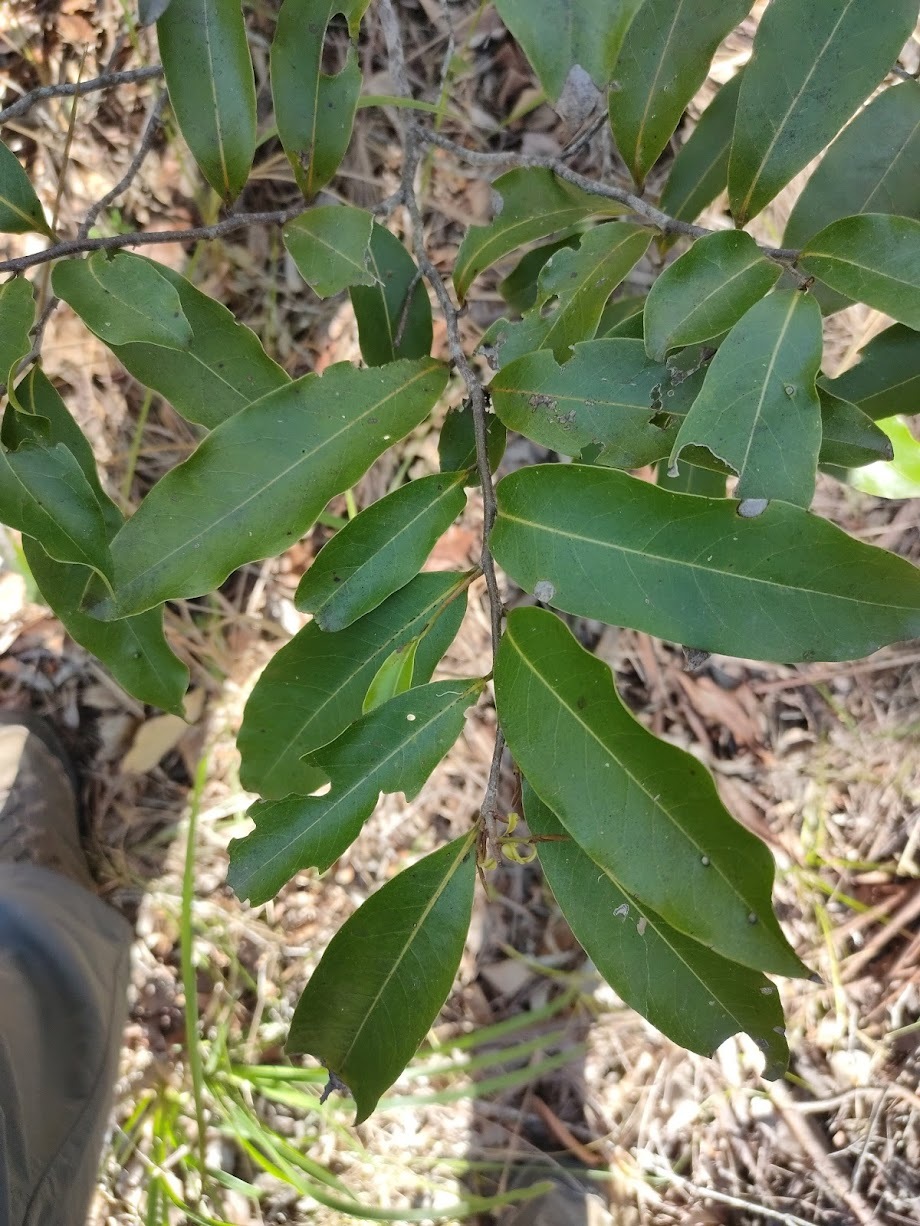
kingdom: Plantae
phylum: Tracheophyta
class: Magnoliopsida
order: Magnoliales
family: Annonaceae
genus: Uvaria
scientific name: Uvaria leichhardtii
